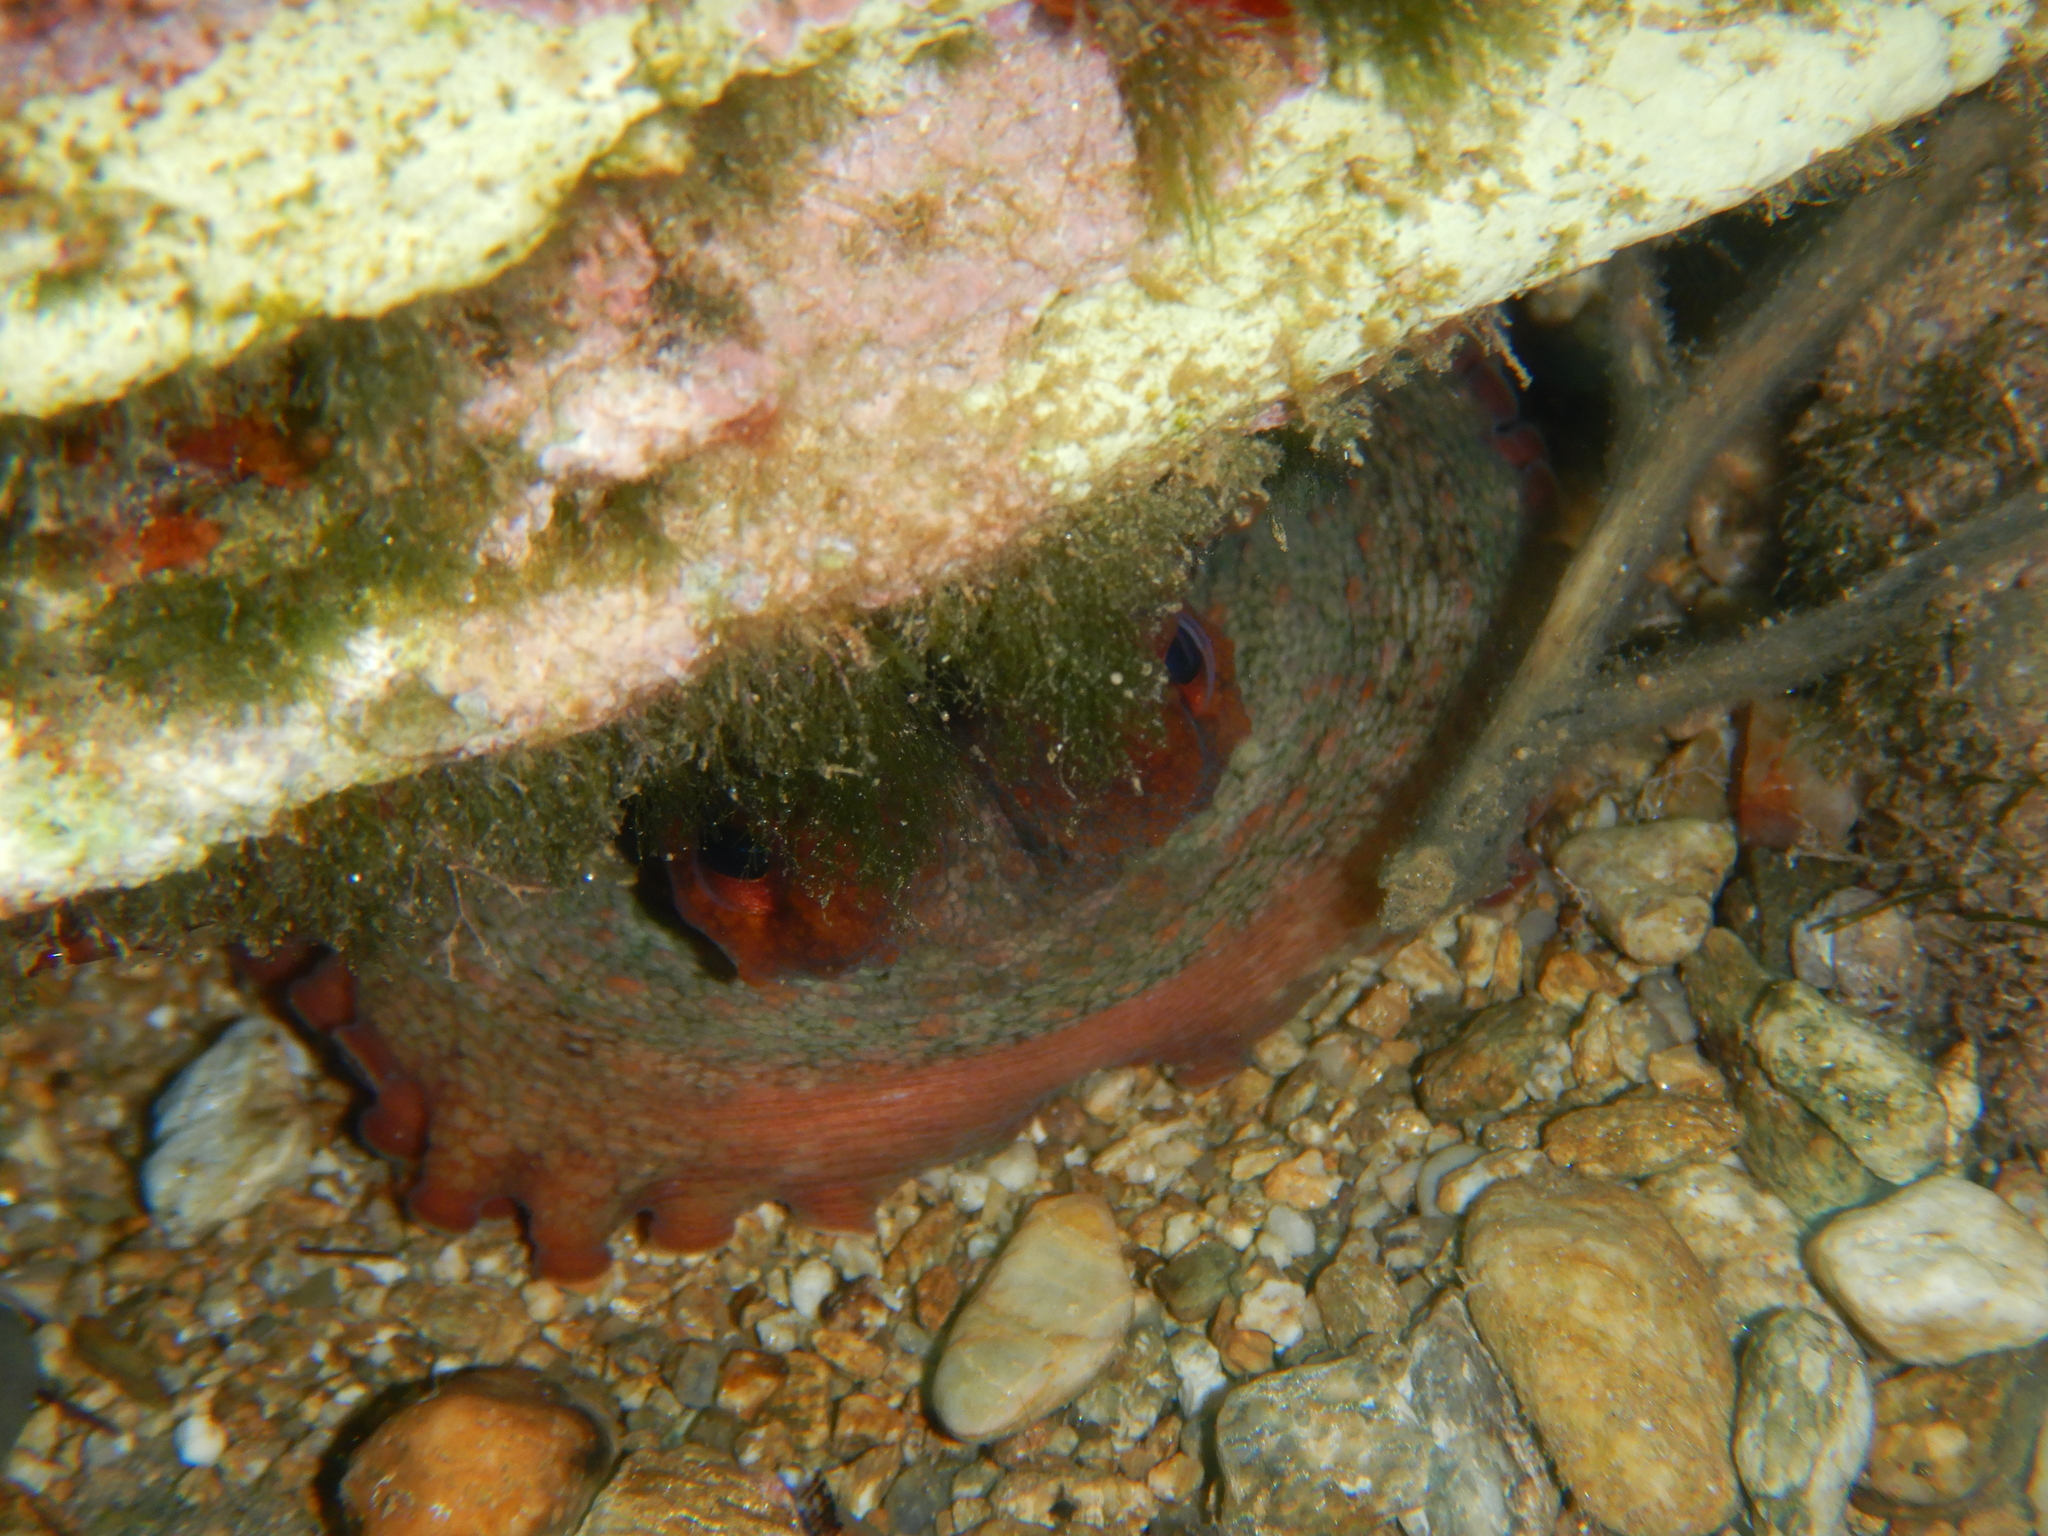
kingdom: Animalia
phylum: Mollusca
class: Cephalopoda
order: Octopoda
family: Octopodidae
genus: Octopus
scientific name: Octopus vulgaris
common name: Common octopus
